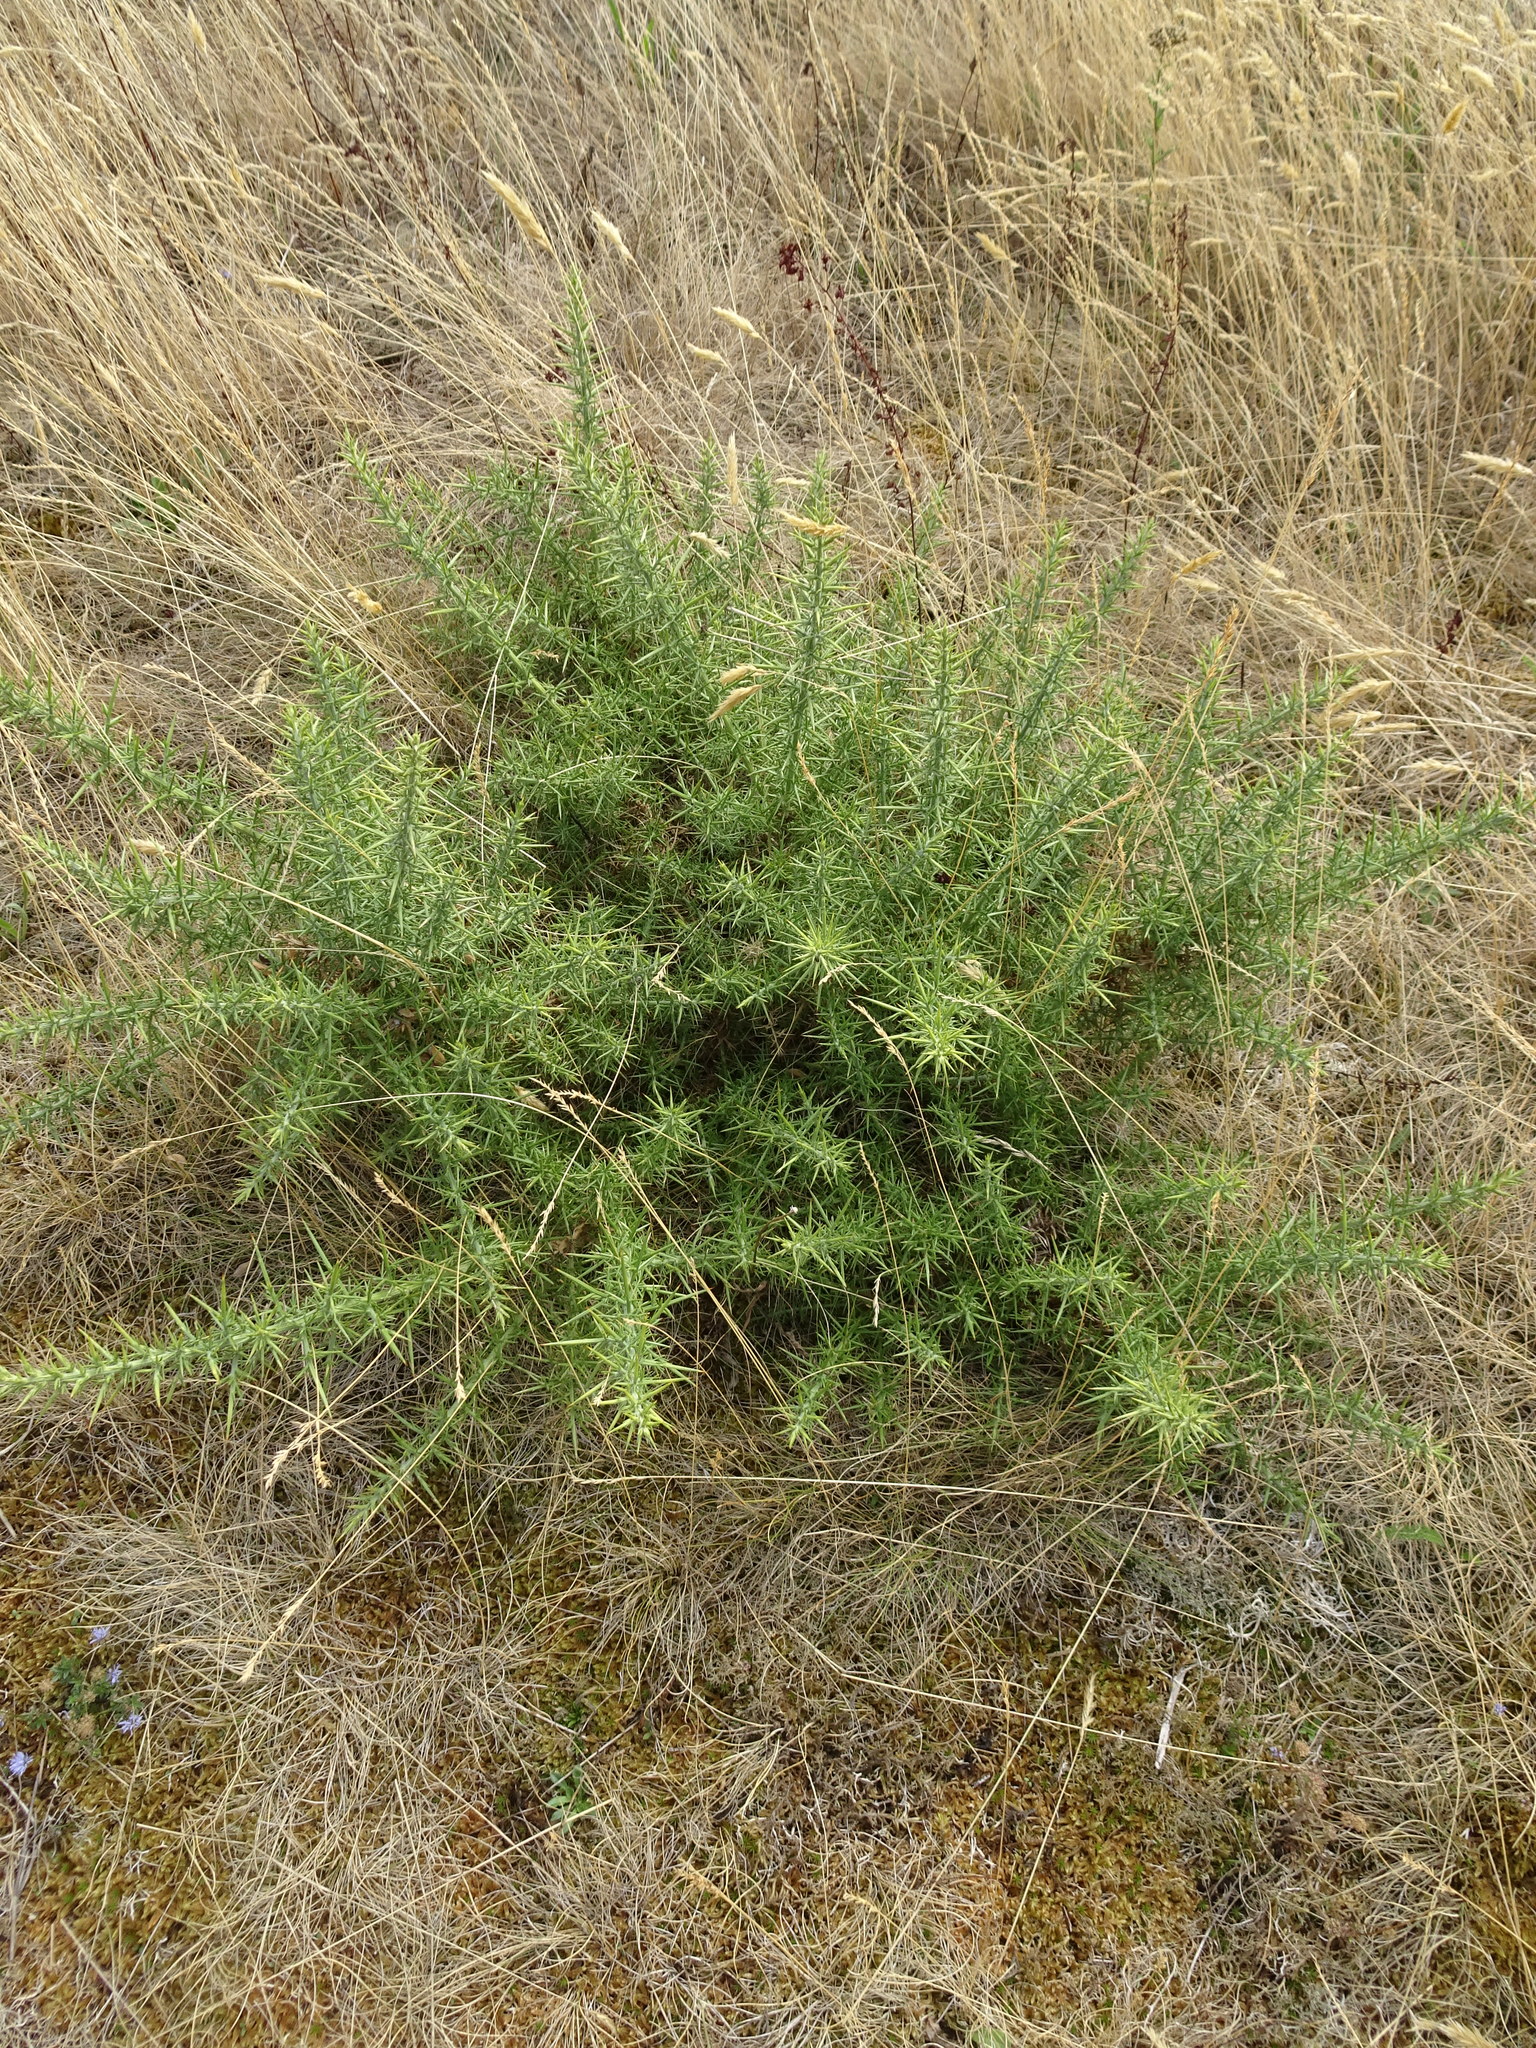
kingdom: Plantae
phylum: Tracheophyta
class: Magnoliopsida
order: Fabales
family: Fabaceae
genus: Ulex
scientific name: Ulex europaeus
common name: Common gorse
